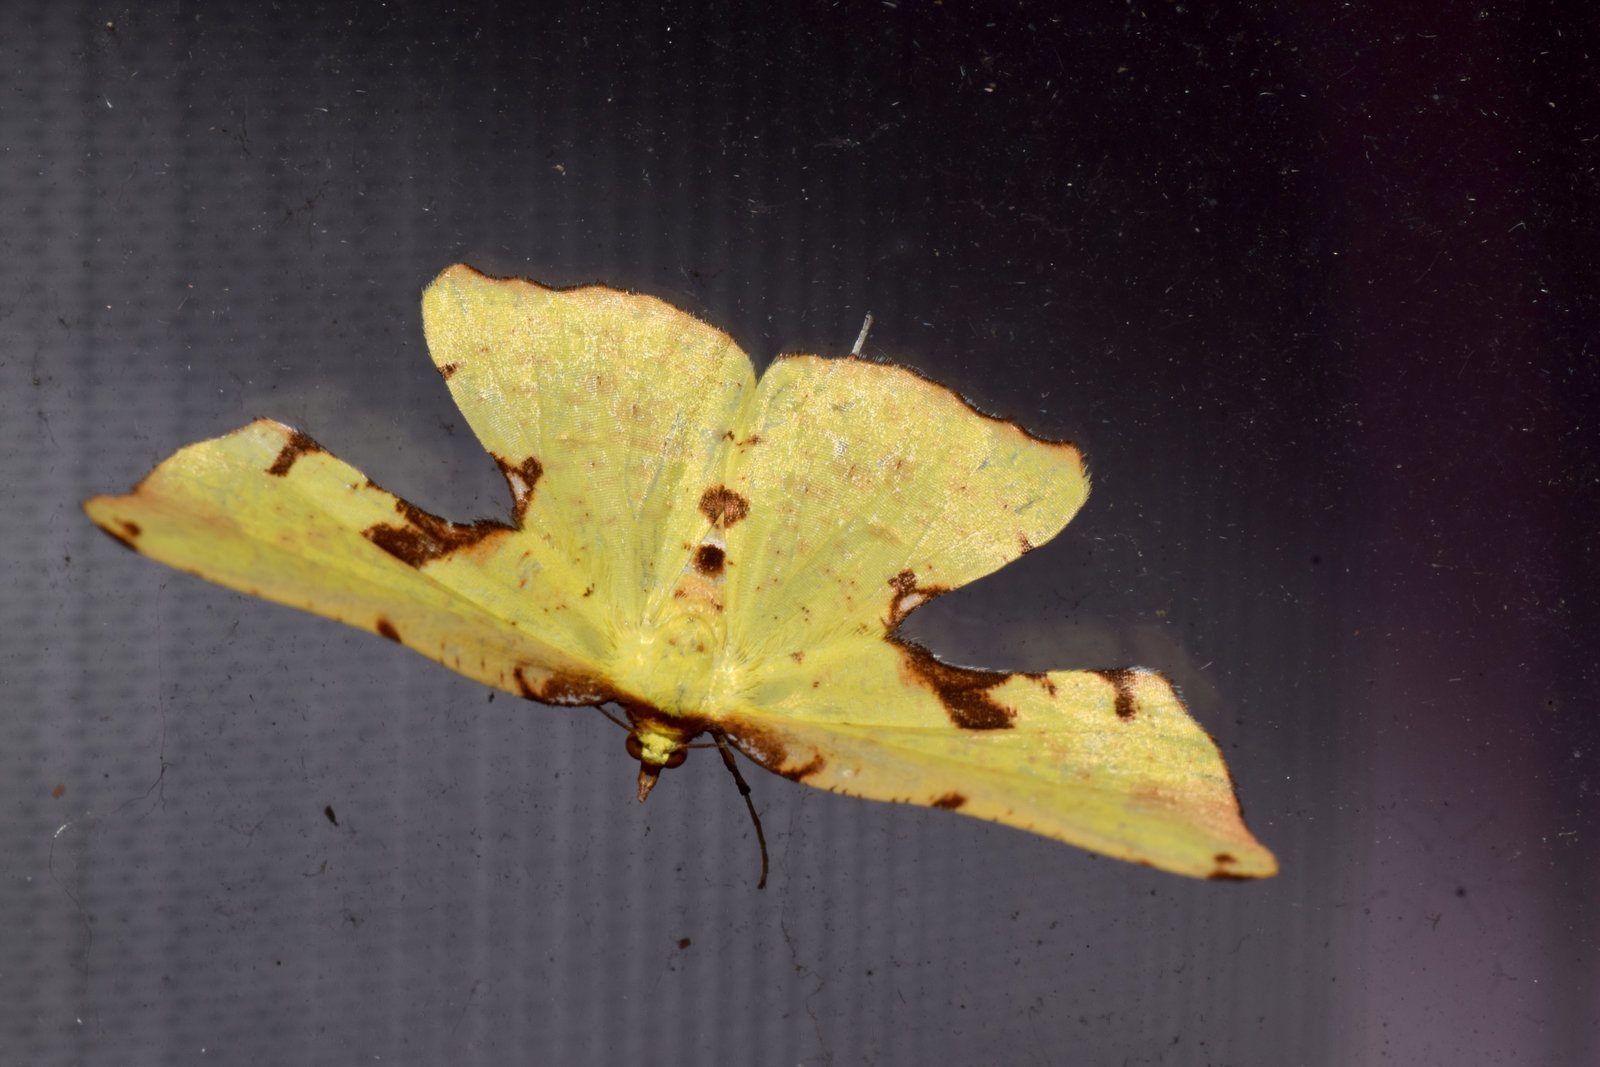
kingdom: Animalia
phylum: Arthropoda
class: Insecta
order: Lepidoptera
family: Geometridae
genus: Corymica
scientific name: Corymica specularia
